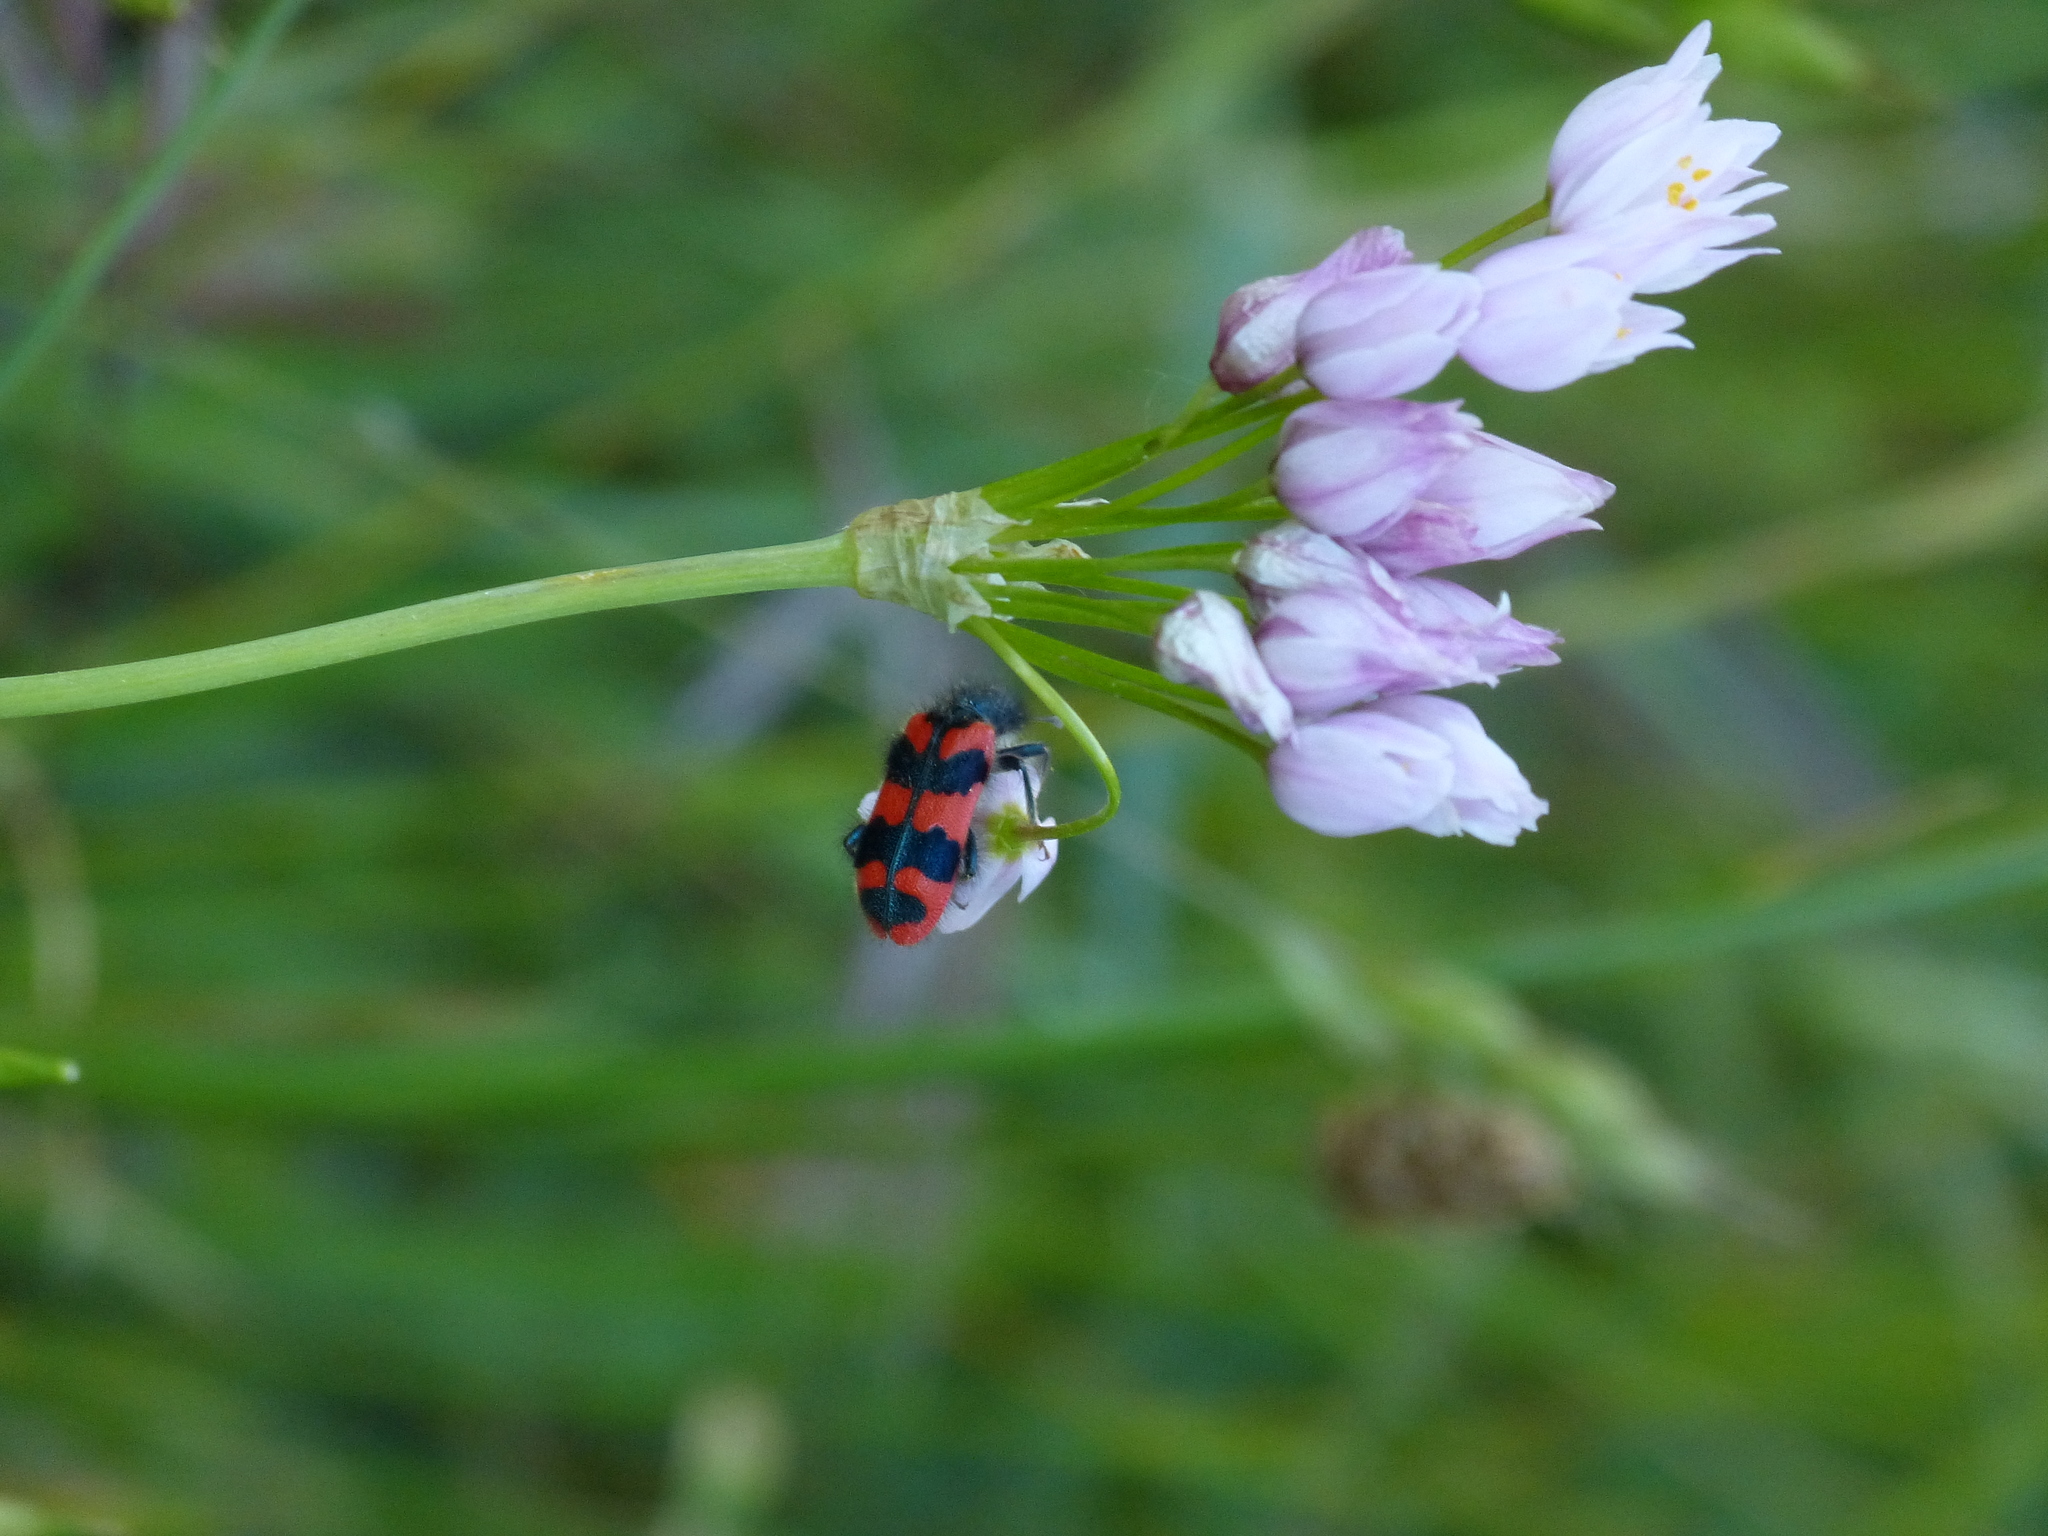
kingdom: Animalia
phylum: Arthropoda
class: Insecta
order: Coleoptera
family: Cleridae
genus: Trichodes
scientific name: Trichodes alvearius
